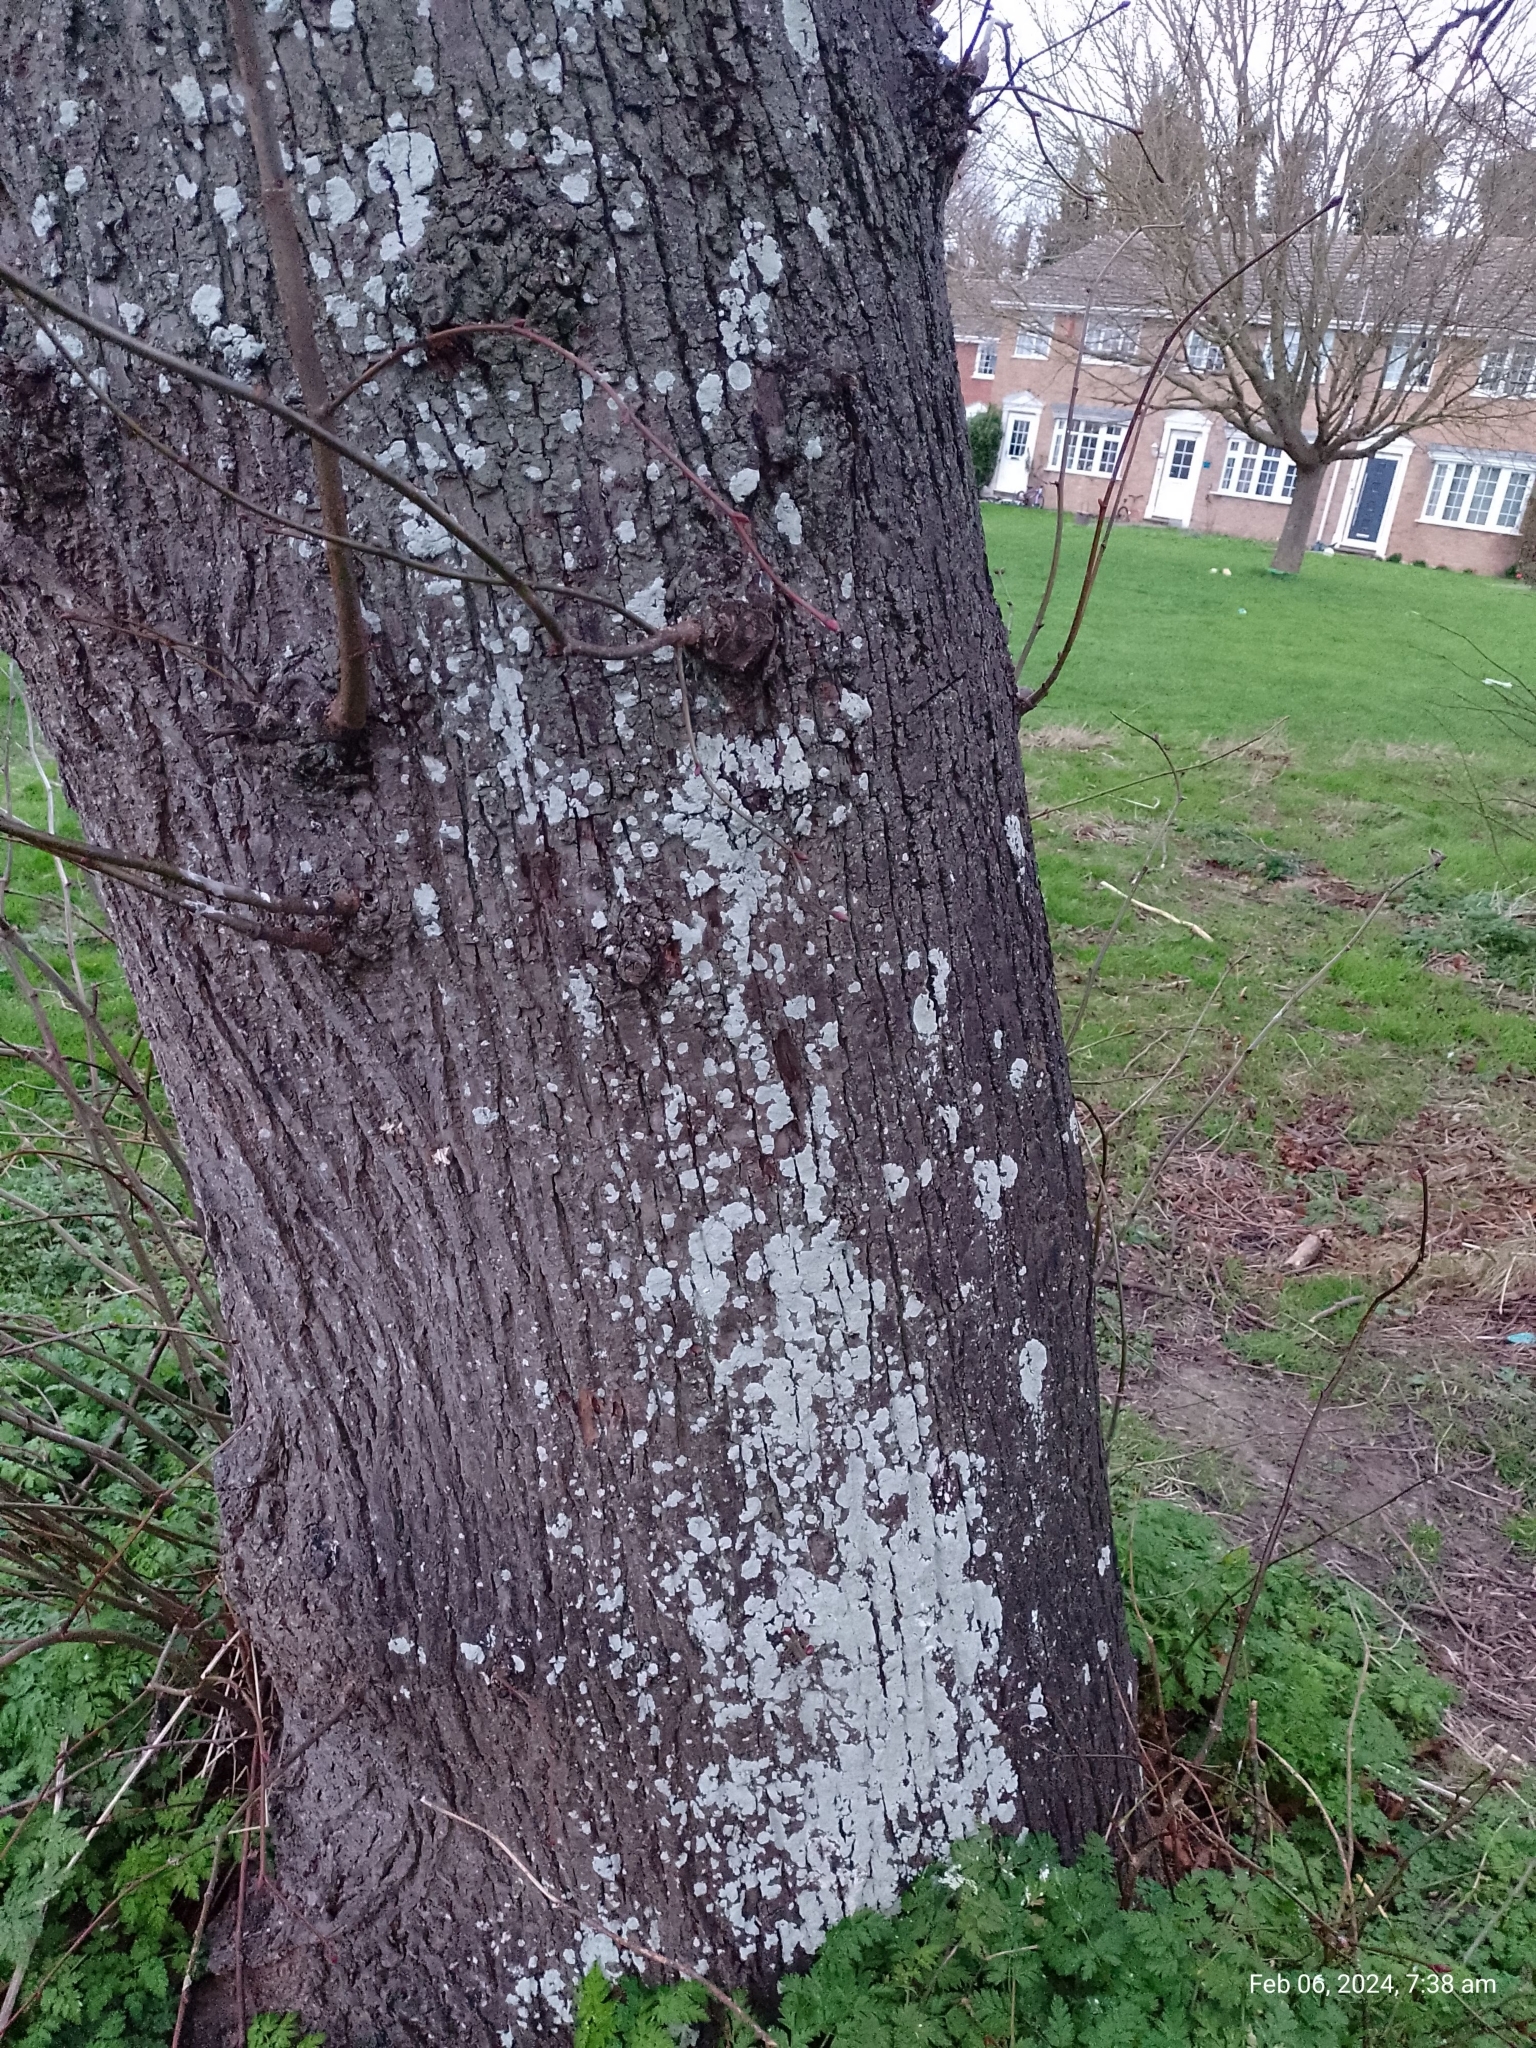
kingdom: Fungi
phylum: Ascomycota
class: Lecanoromycetes
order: Caliciales
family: Caliciaceae
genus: Diploicia
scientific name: Diploicia canescens
